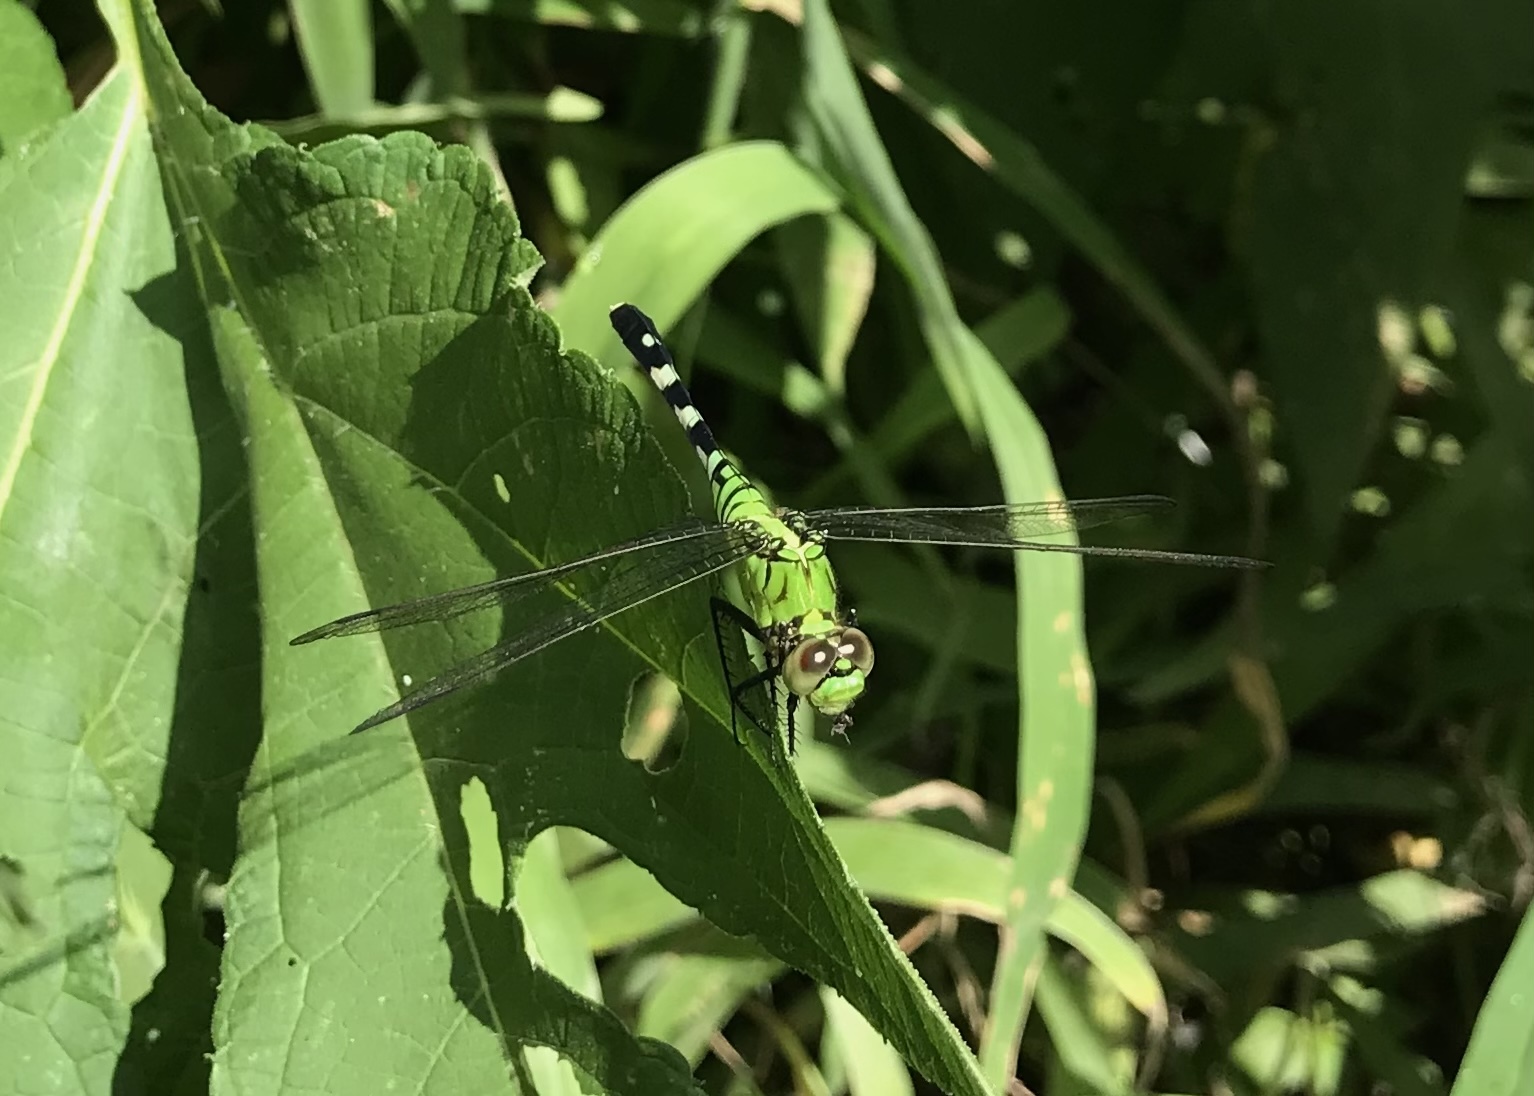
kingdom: Animalia
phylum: Arthropoda
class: Insecta
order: Odonata
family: Libellulidae
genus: Erythemis
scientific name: Erythemis simplicicollis
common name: Eastern pondhawk
